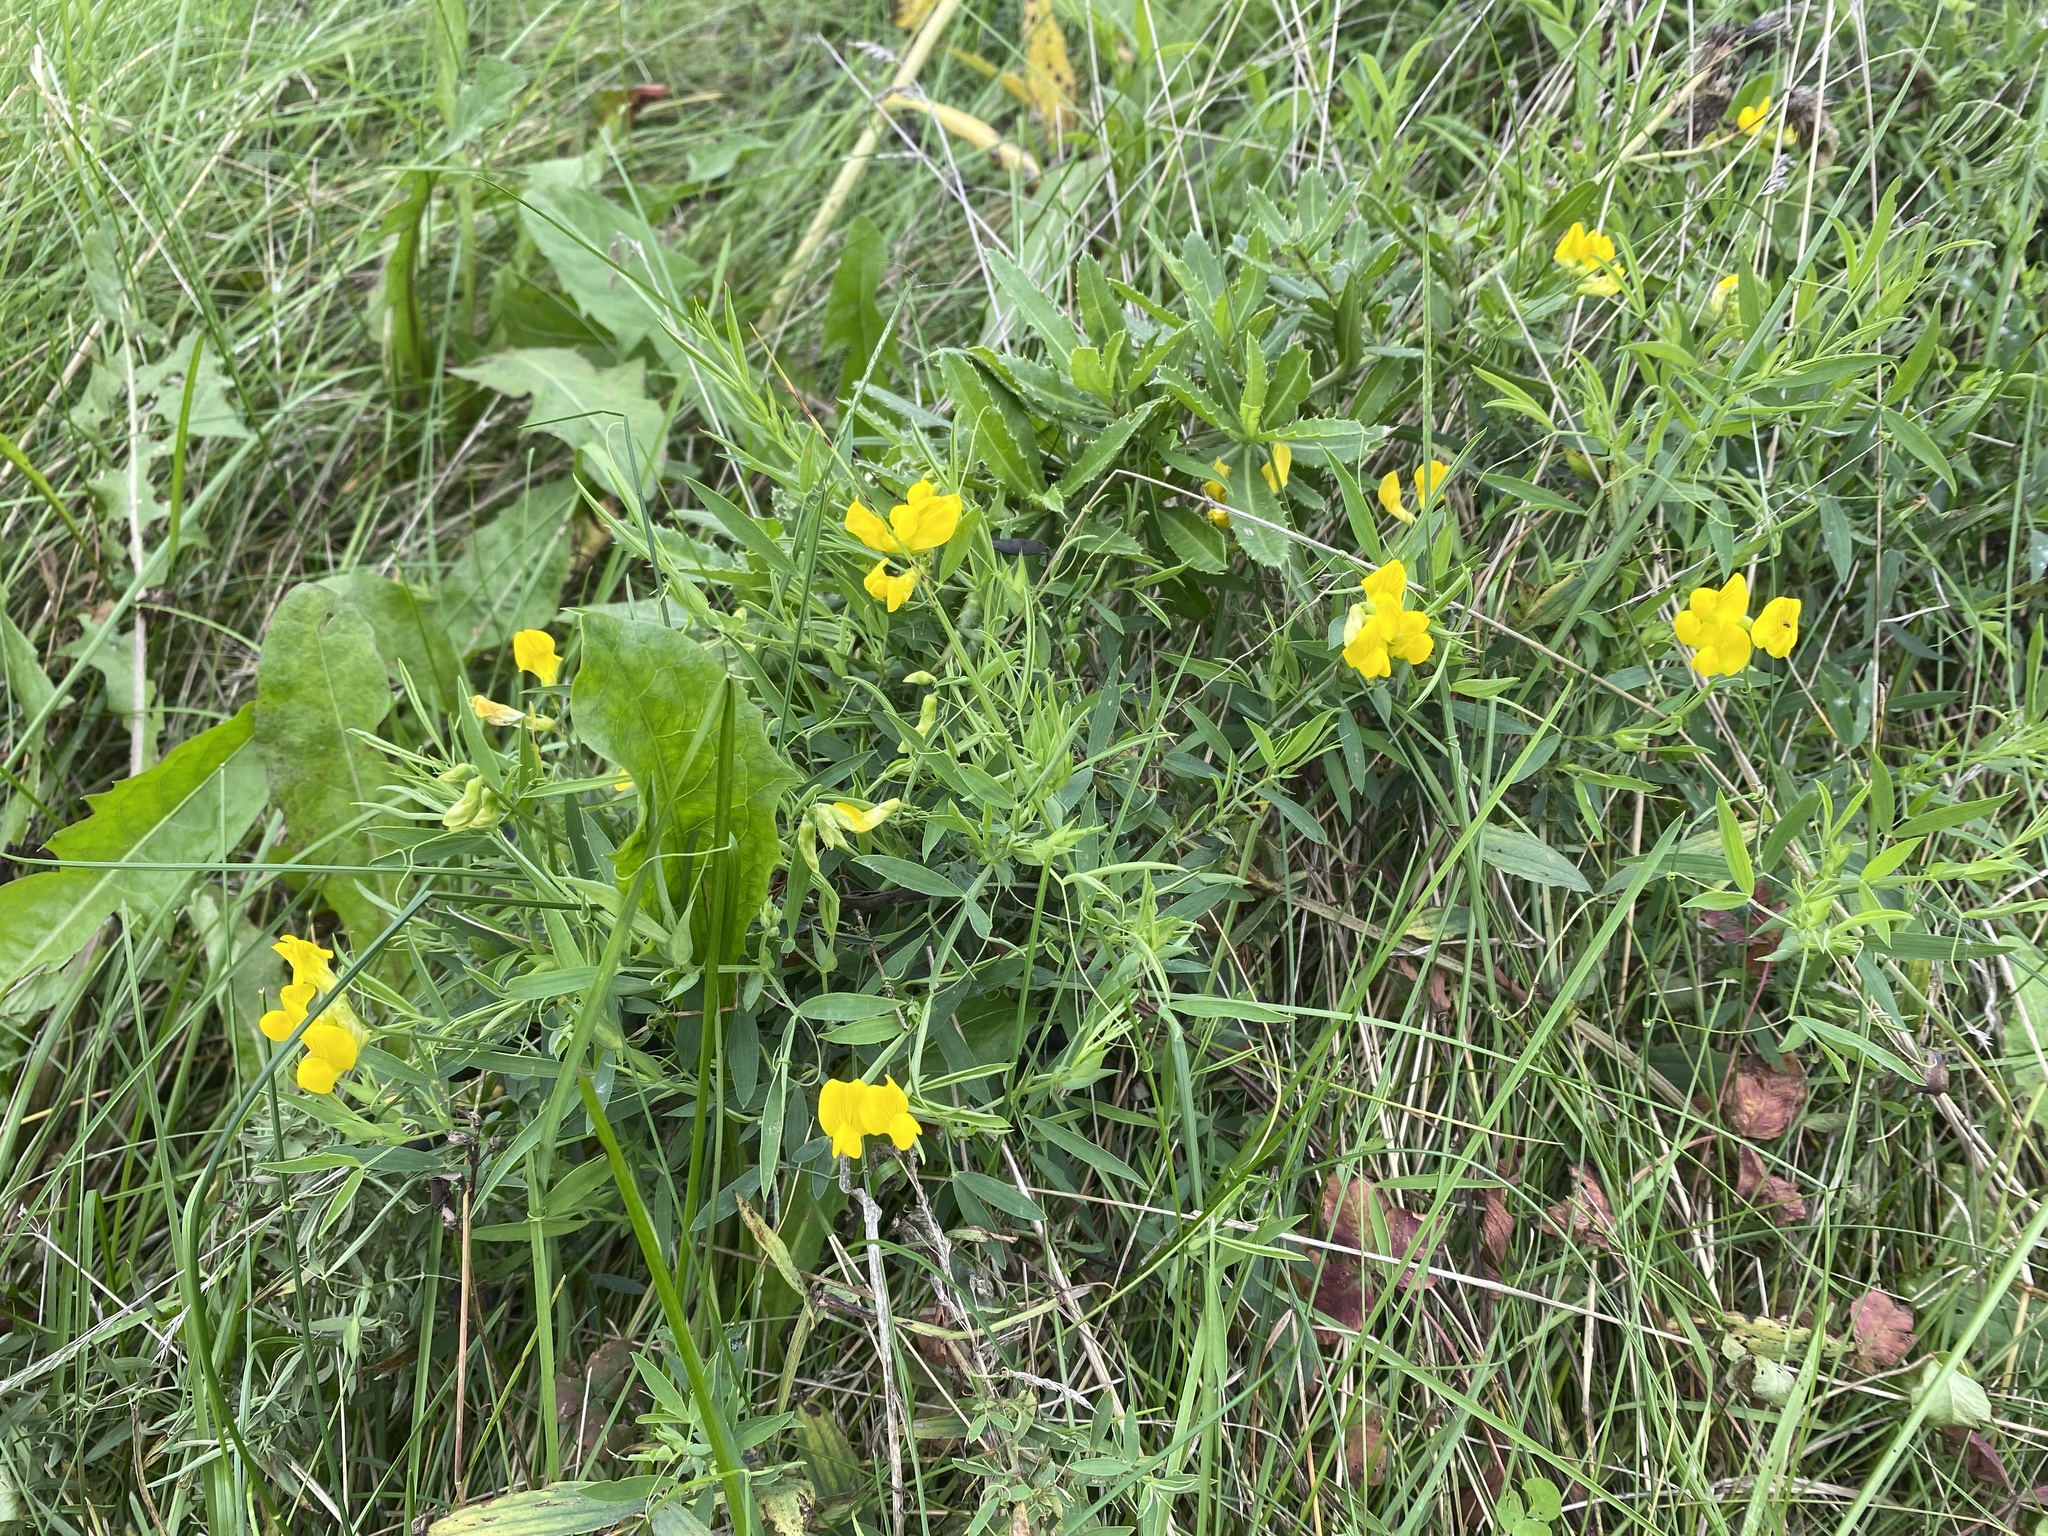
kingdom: Plantae
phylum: Tracheophyta
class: Magnoliopsida
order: Fabales
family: Fabaceae
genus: Lathyrus
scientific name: Lathyrus pratensis
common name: Meadow vetchling
